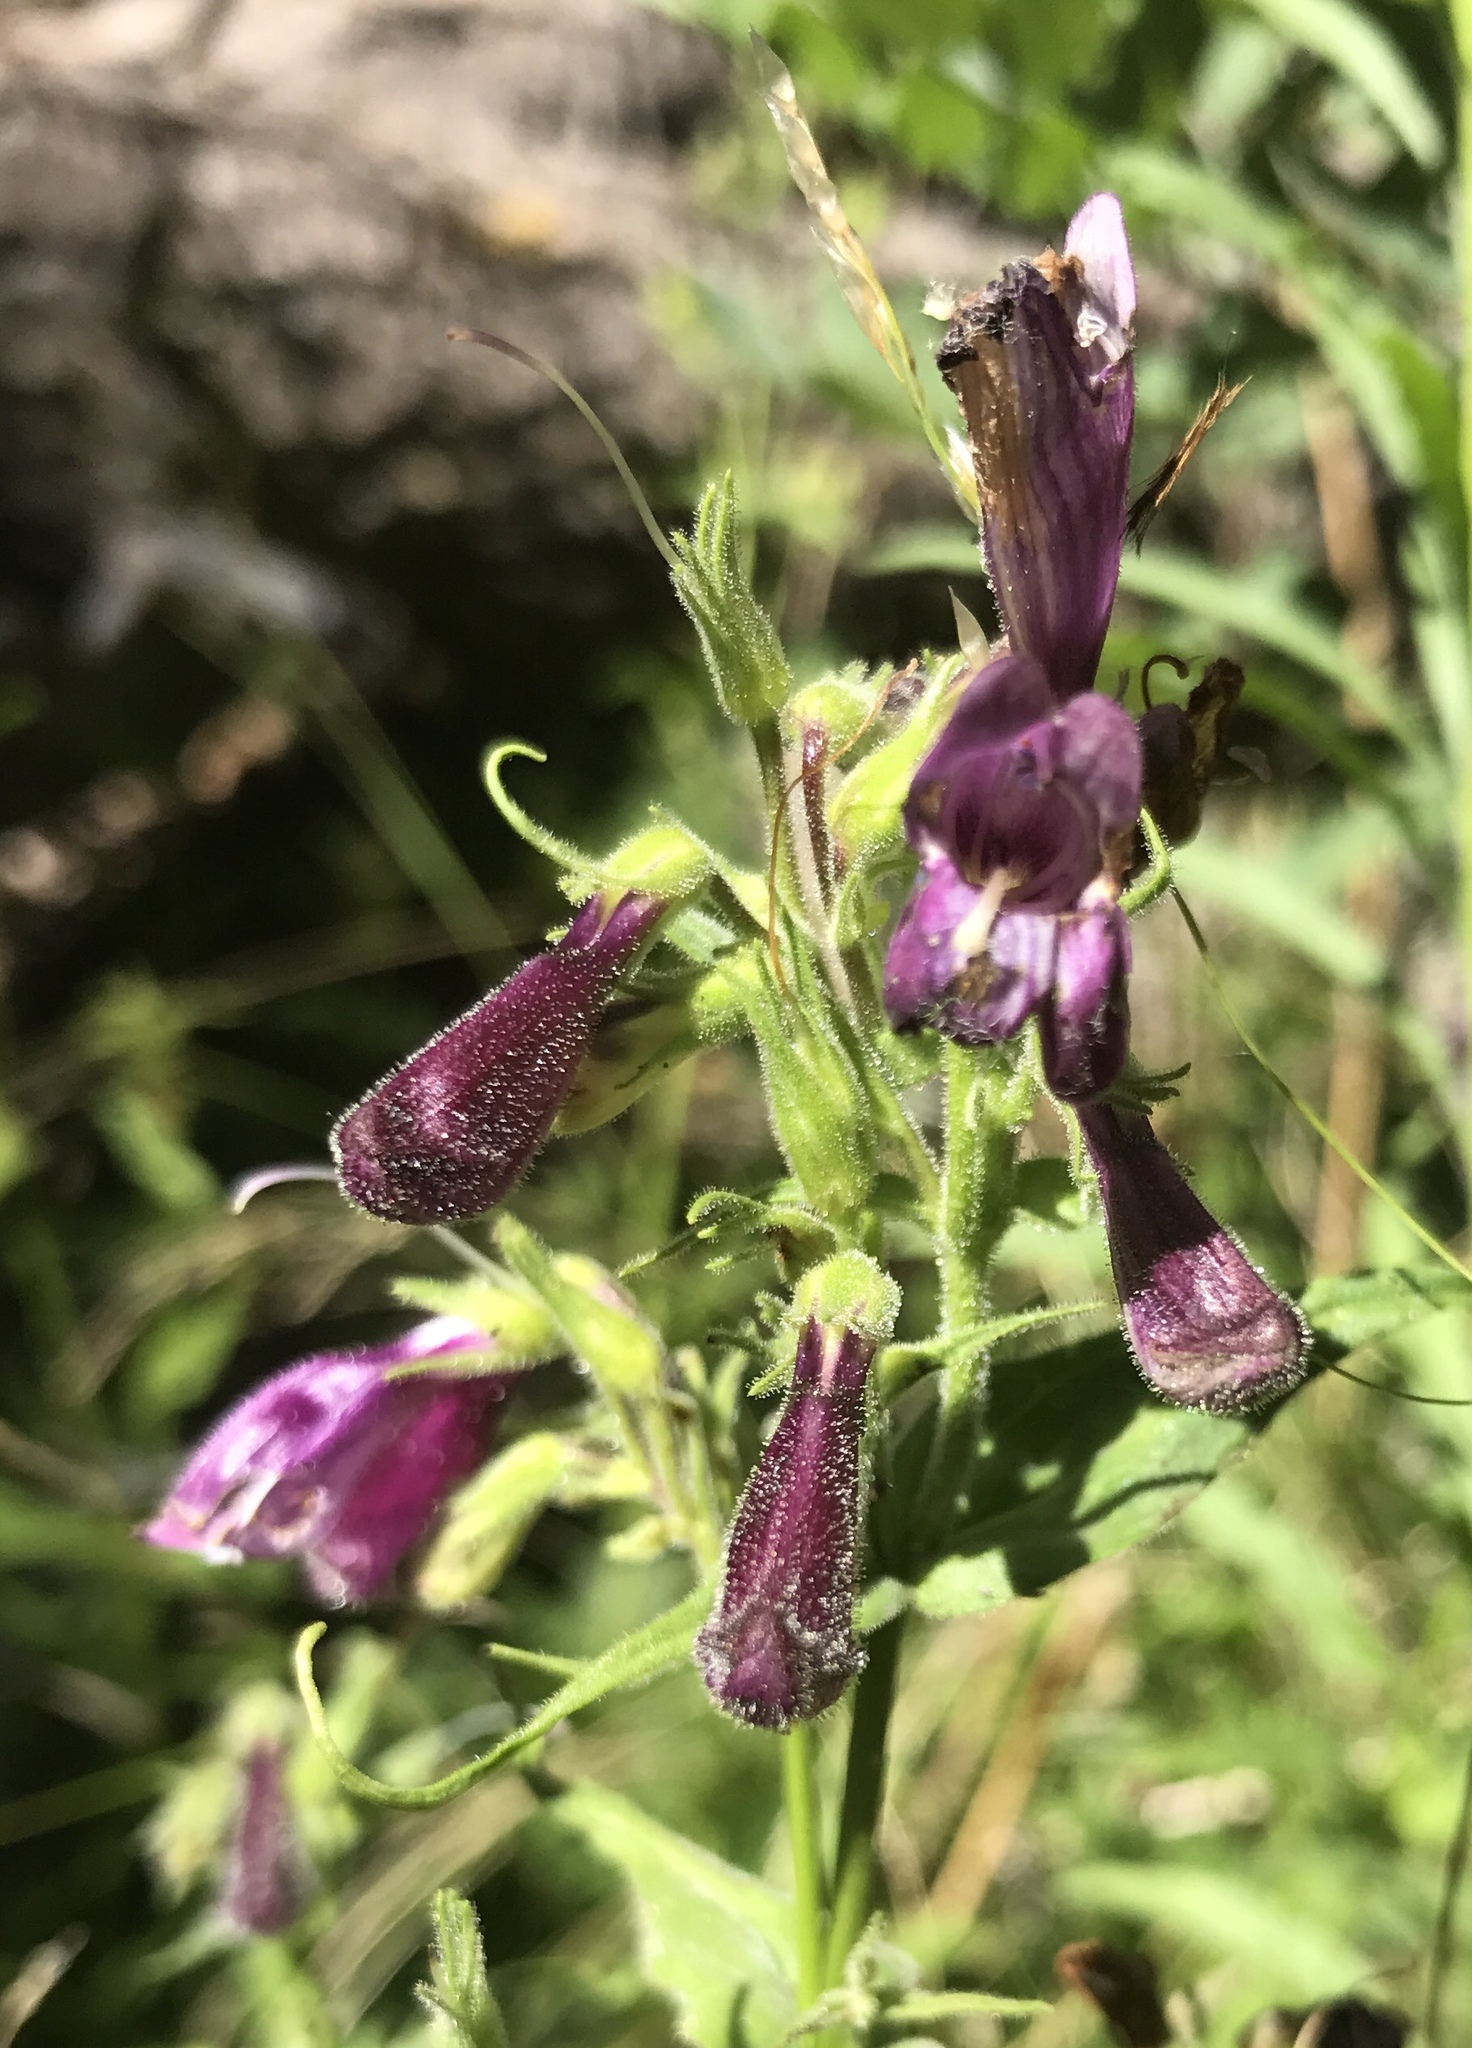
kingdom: Plantae
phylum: Tracheophyta
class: Magnoliopsida
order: Lamiales
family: Plantaginaceae
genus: Penstemon
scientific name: Penstemon whippleanus
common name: Whipple's penstemon
